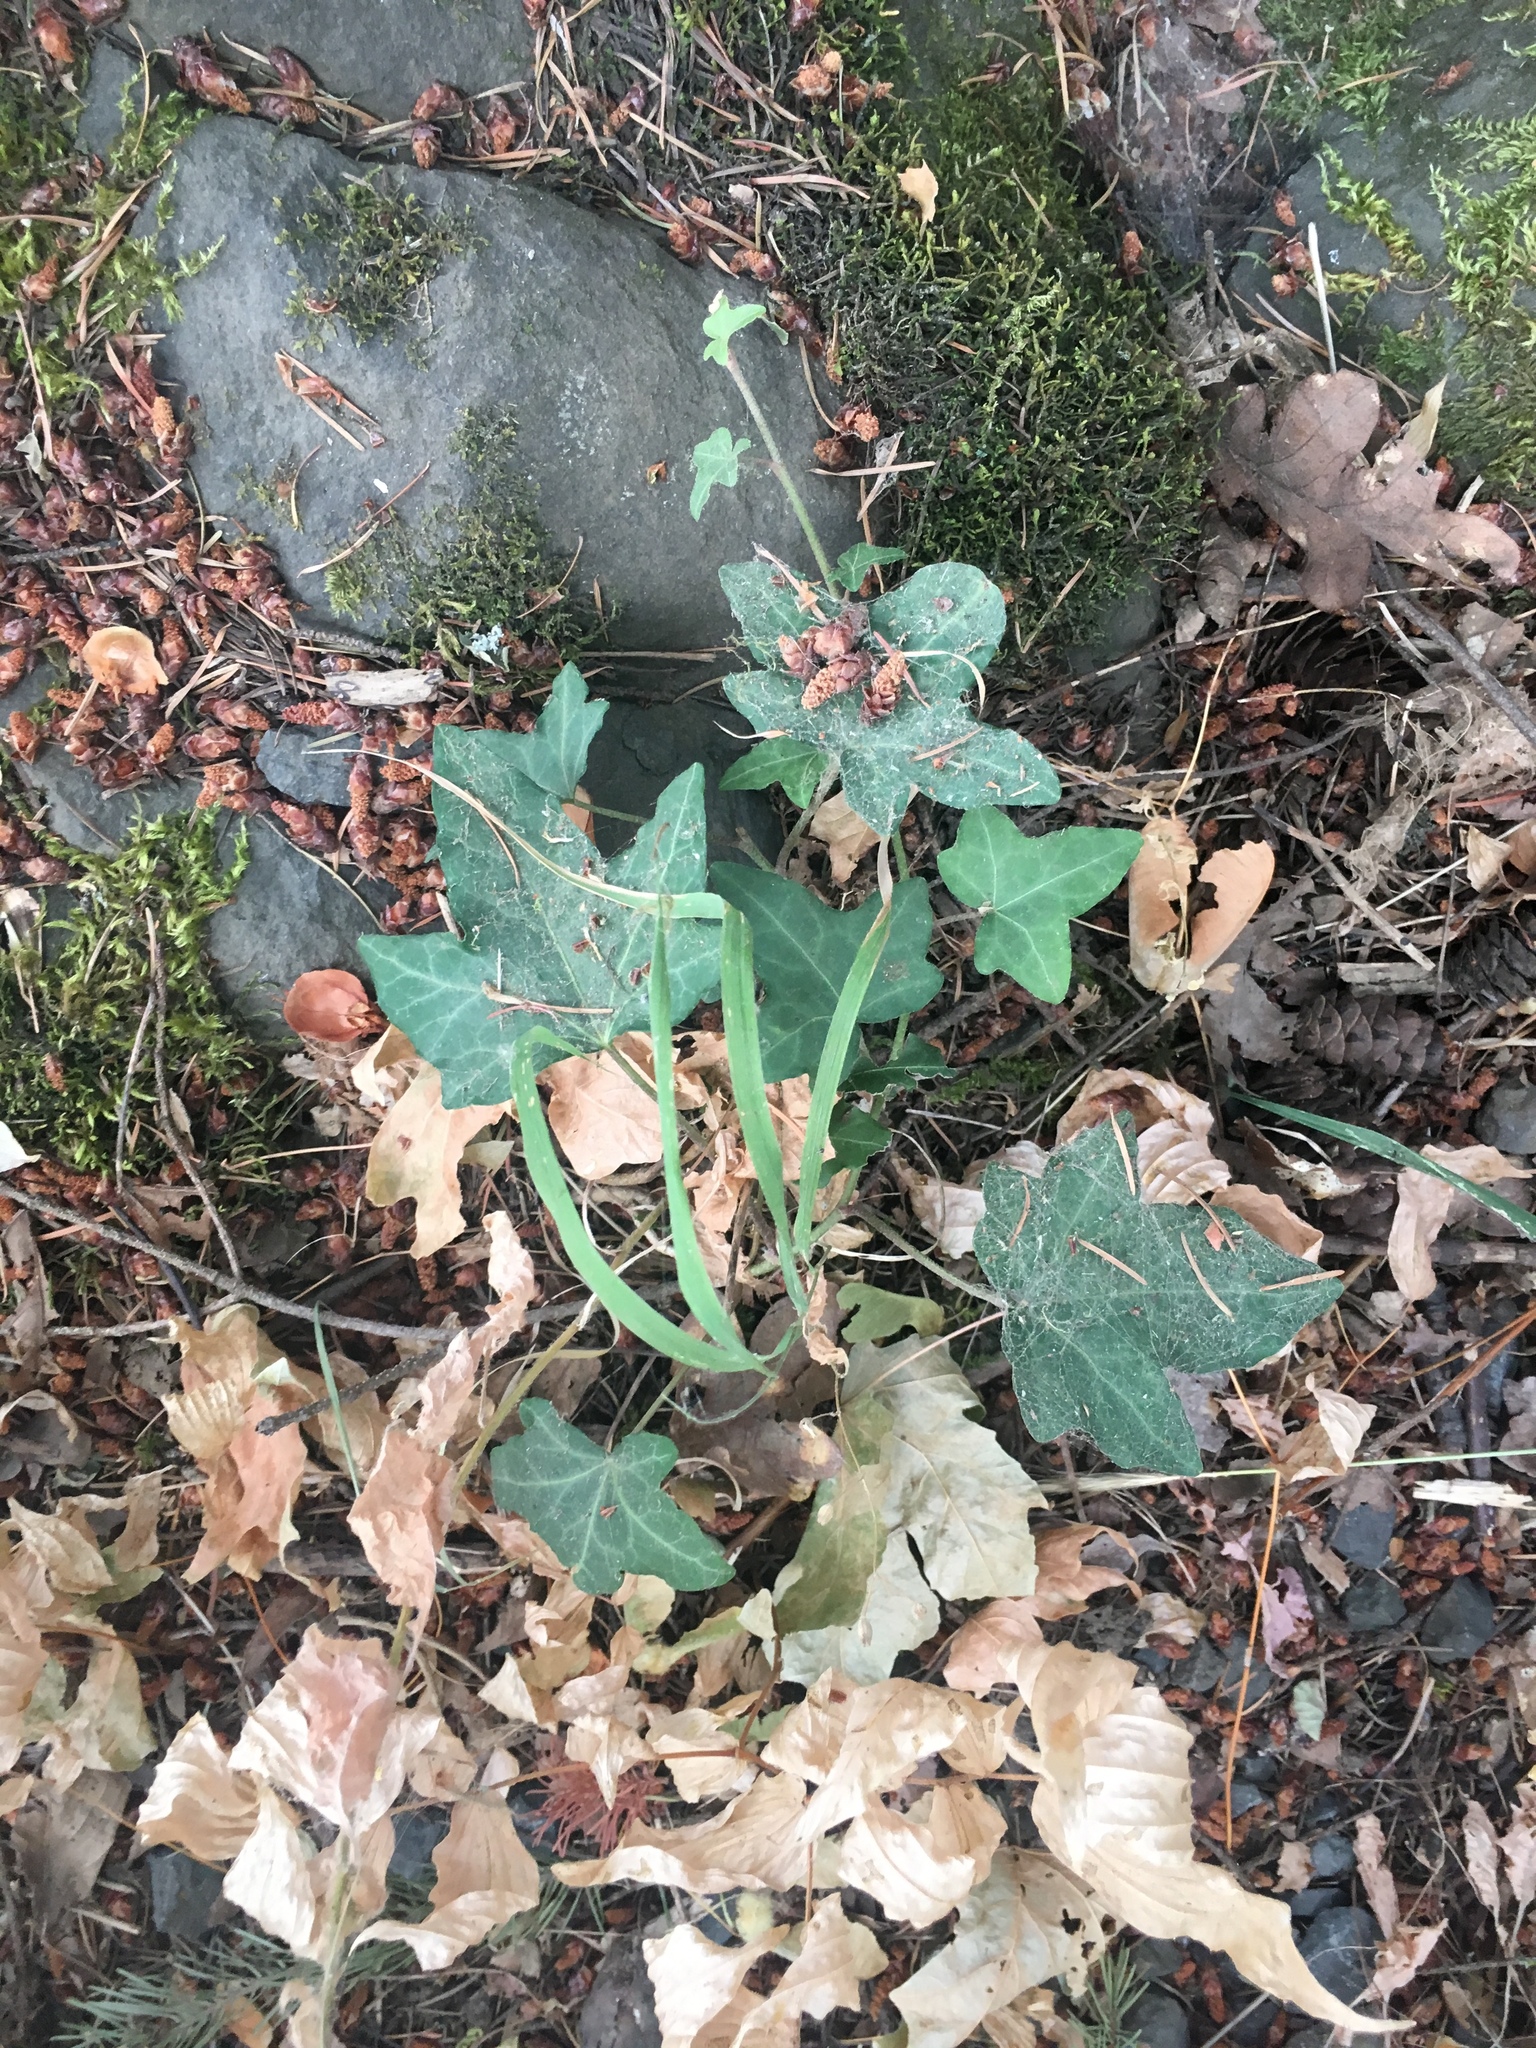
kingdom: Plantae
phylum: Tracheophyta
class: Magnoliopsida
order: Apiales
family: Araliaceae
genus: Hedera
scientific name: Hedera helix
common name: Ivy
